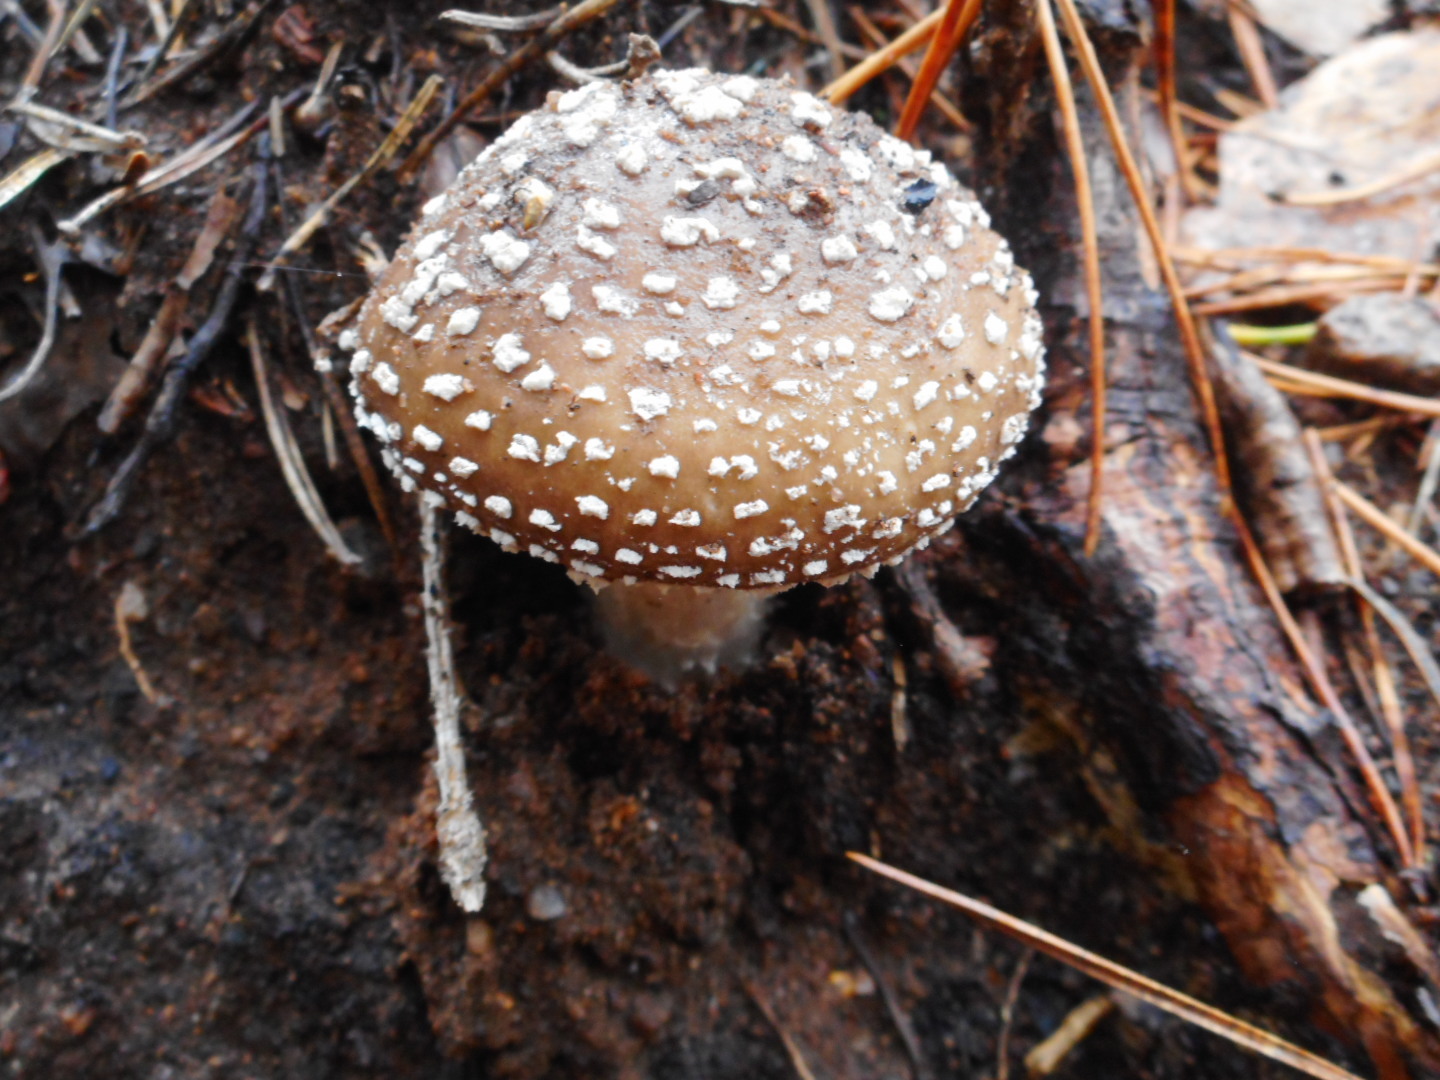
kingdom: Fungi
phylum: Basidiomycota
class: Agaricomycetes
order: Agaricales
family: Amanitaceae
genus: Amanita
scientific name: Amanita pantherina
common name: Panthercap
